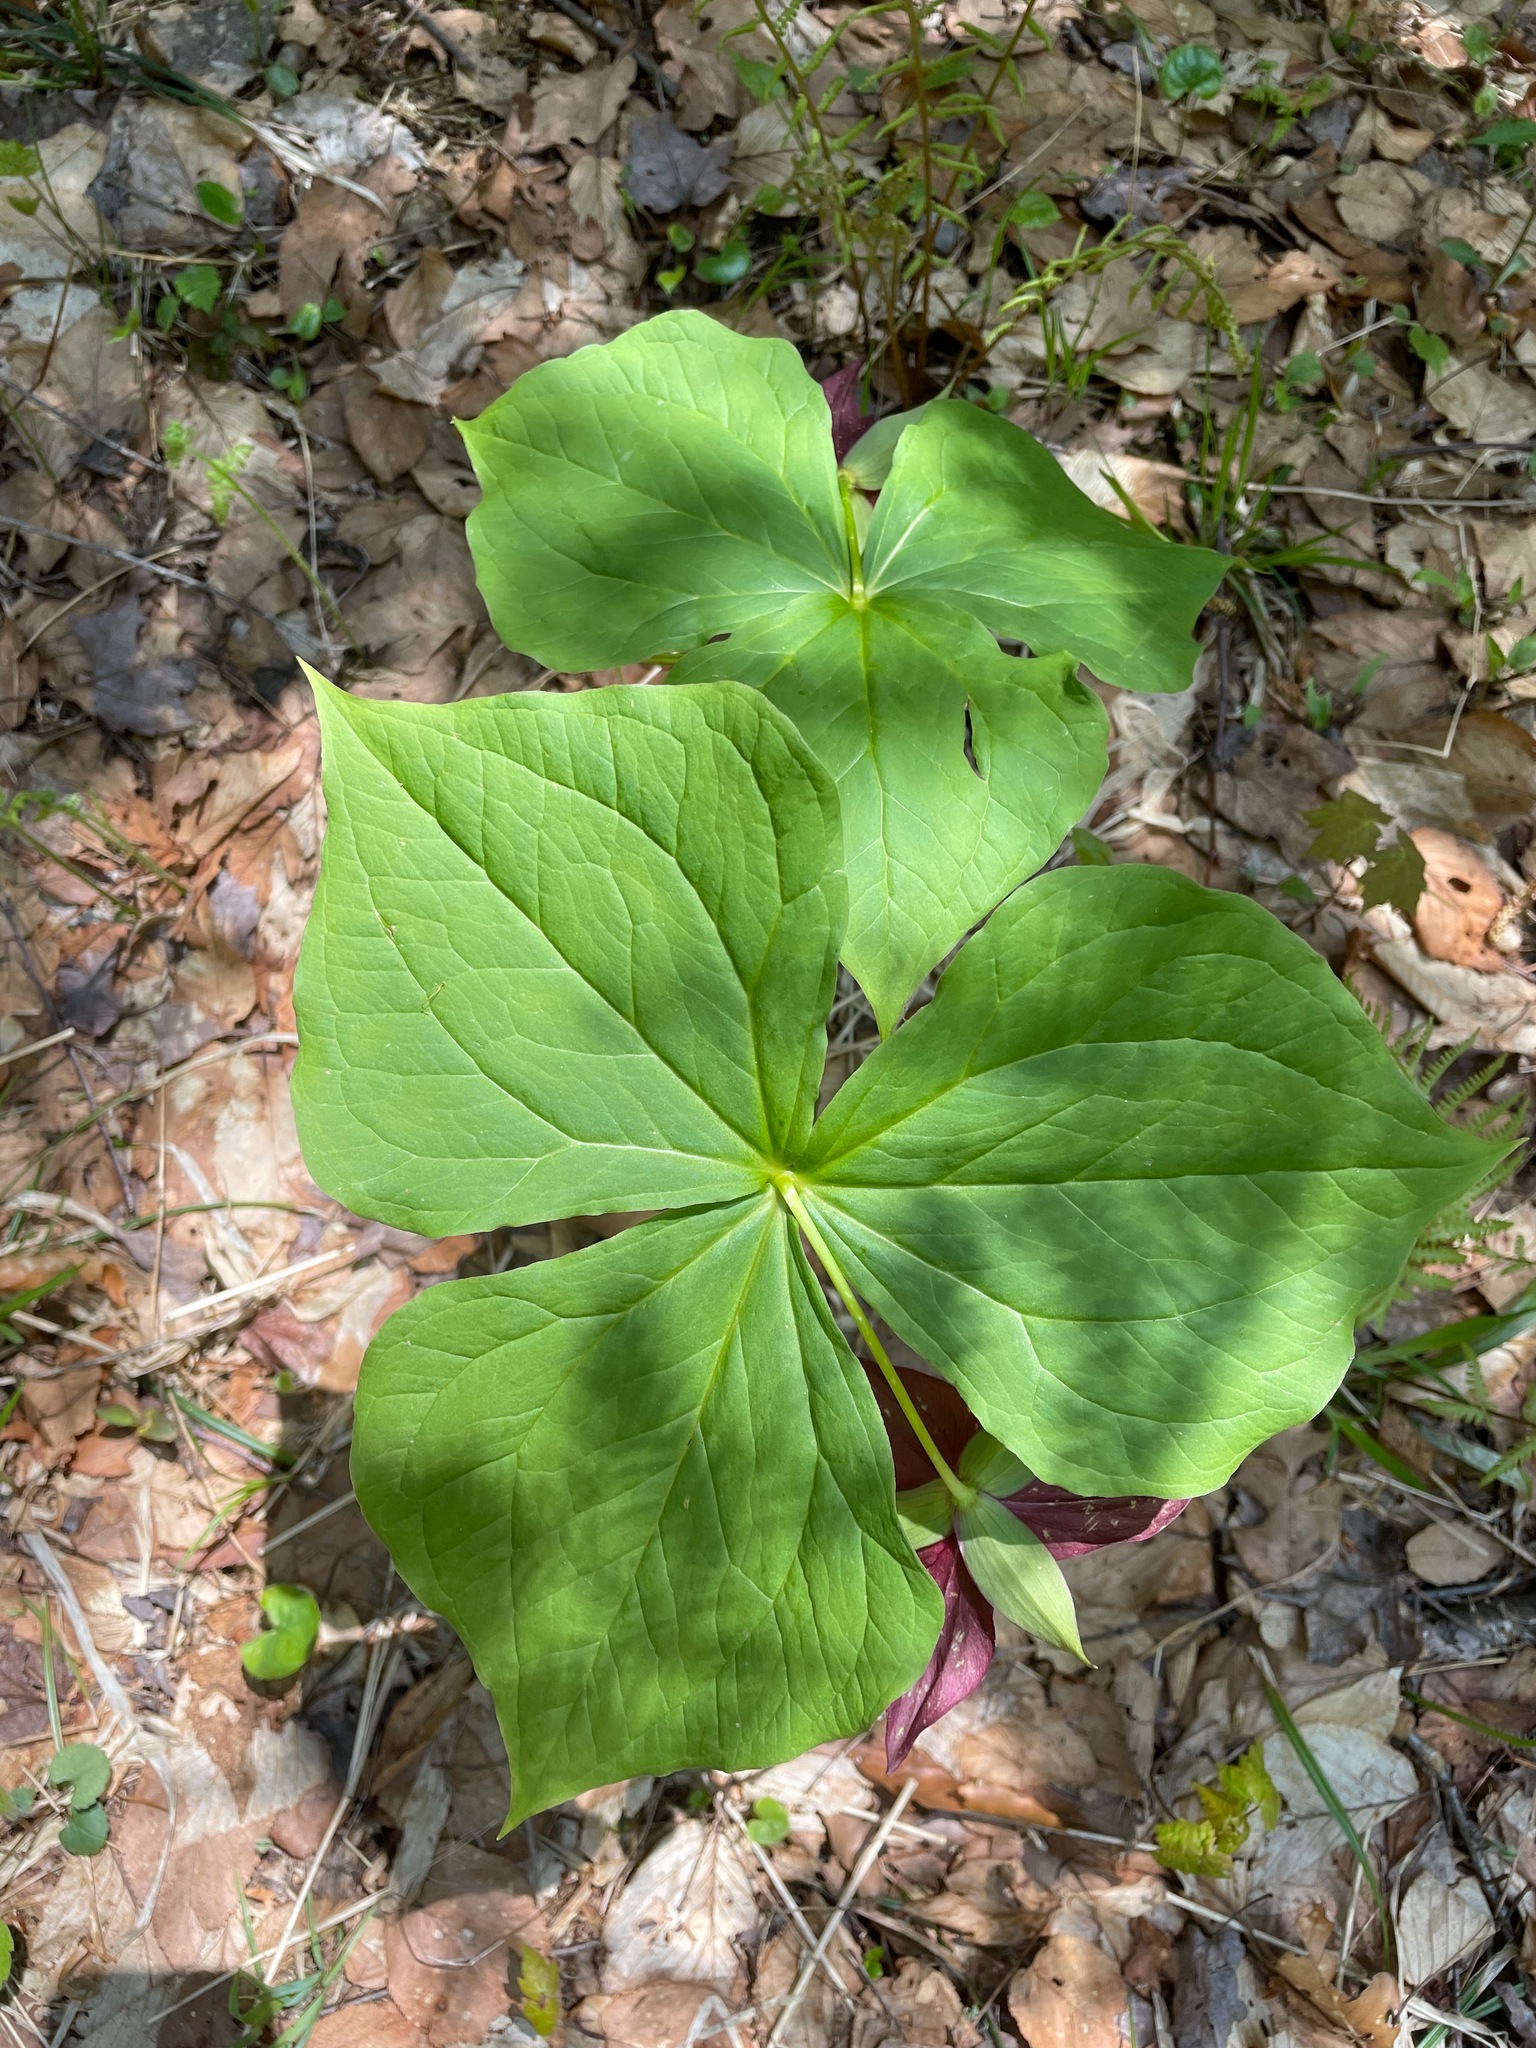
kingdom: Plantae
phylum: Tracheophyta
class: Liliopsida
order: Liliales
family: Melanthiaceae
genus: Trillium
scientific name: Trillium erectum
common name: Purple trillium
